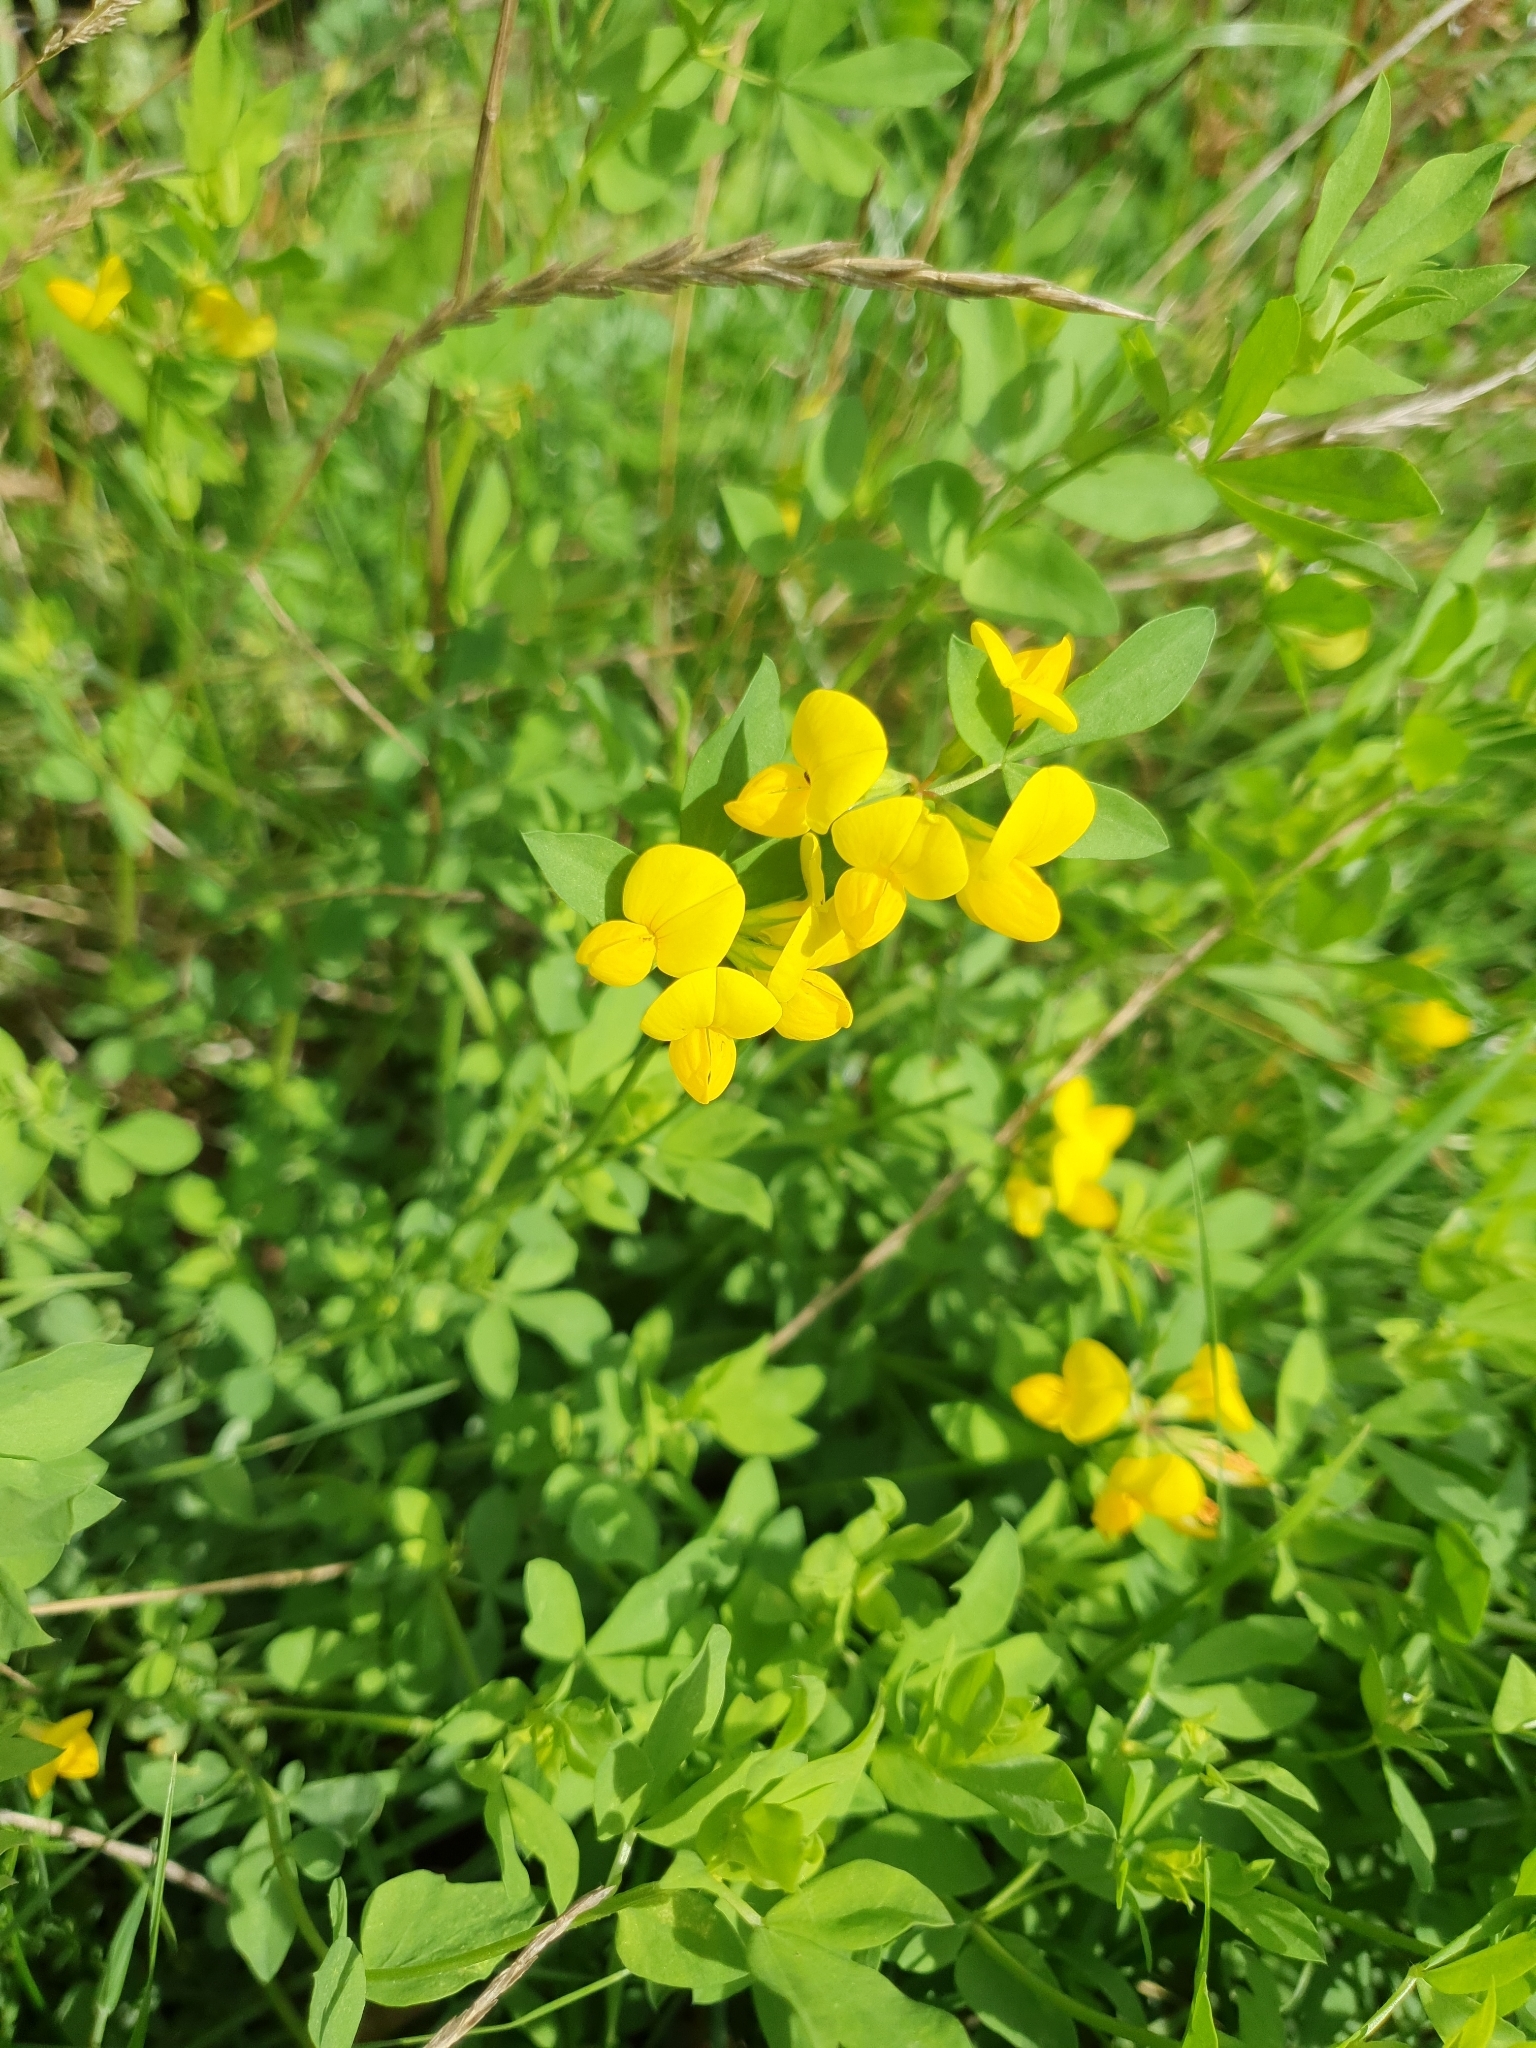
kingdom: Plantae
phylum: Tracheophyta
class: Magnoliopsida
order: Fabales
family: Fabaceae
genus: Lotus
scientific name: Lotus corniculatus
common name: Common bird's-foot-trefoil
